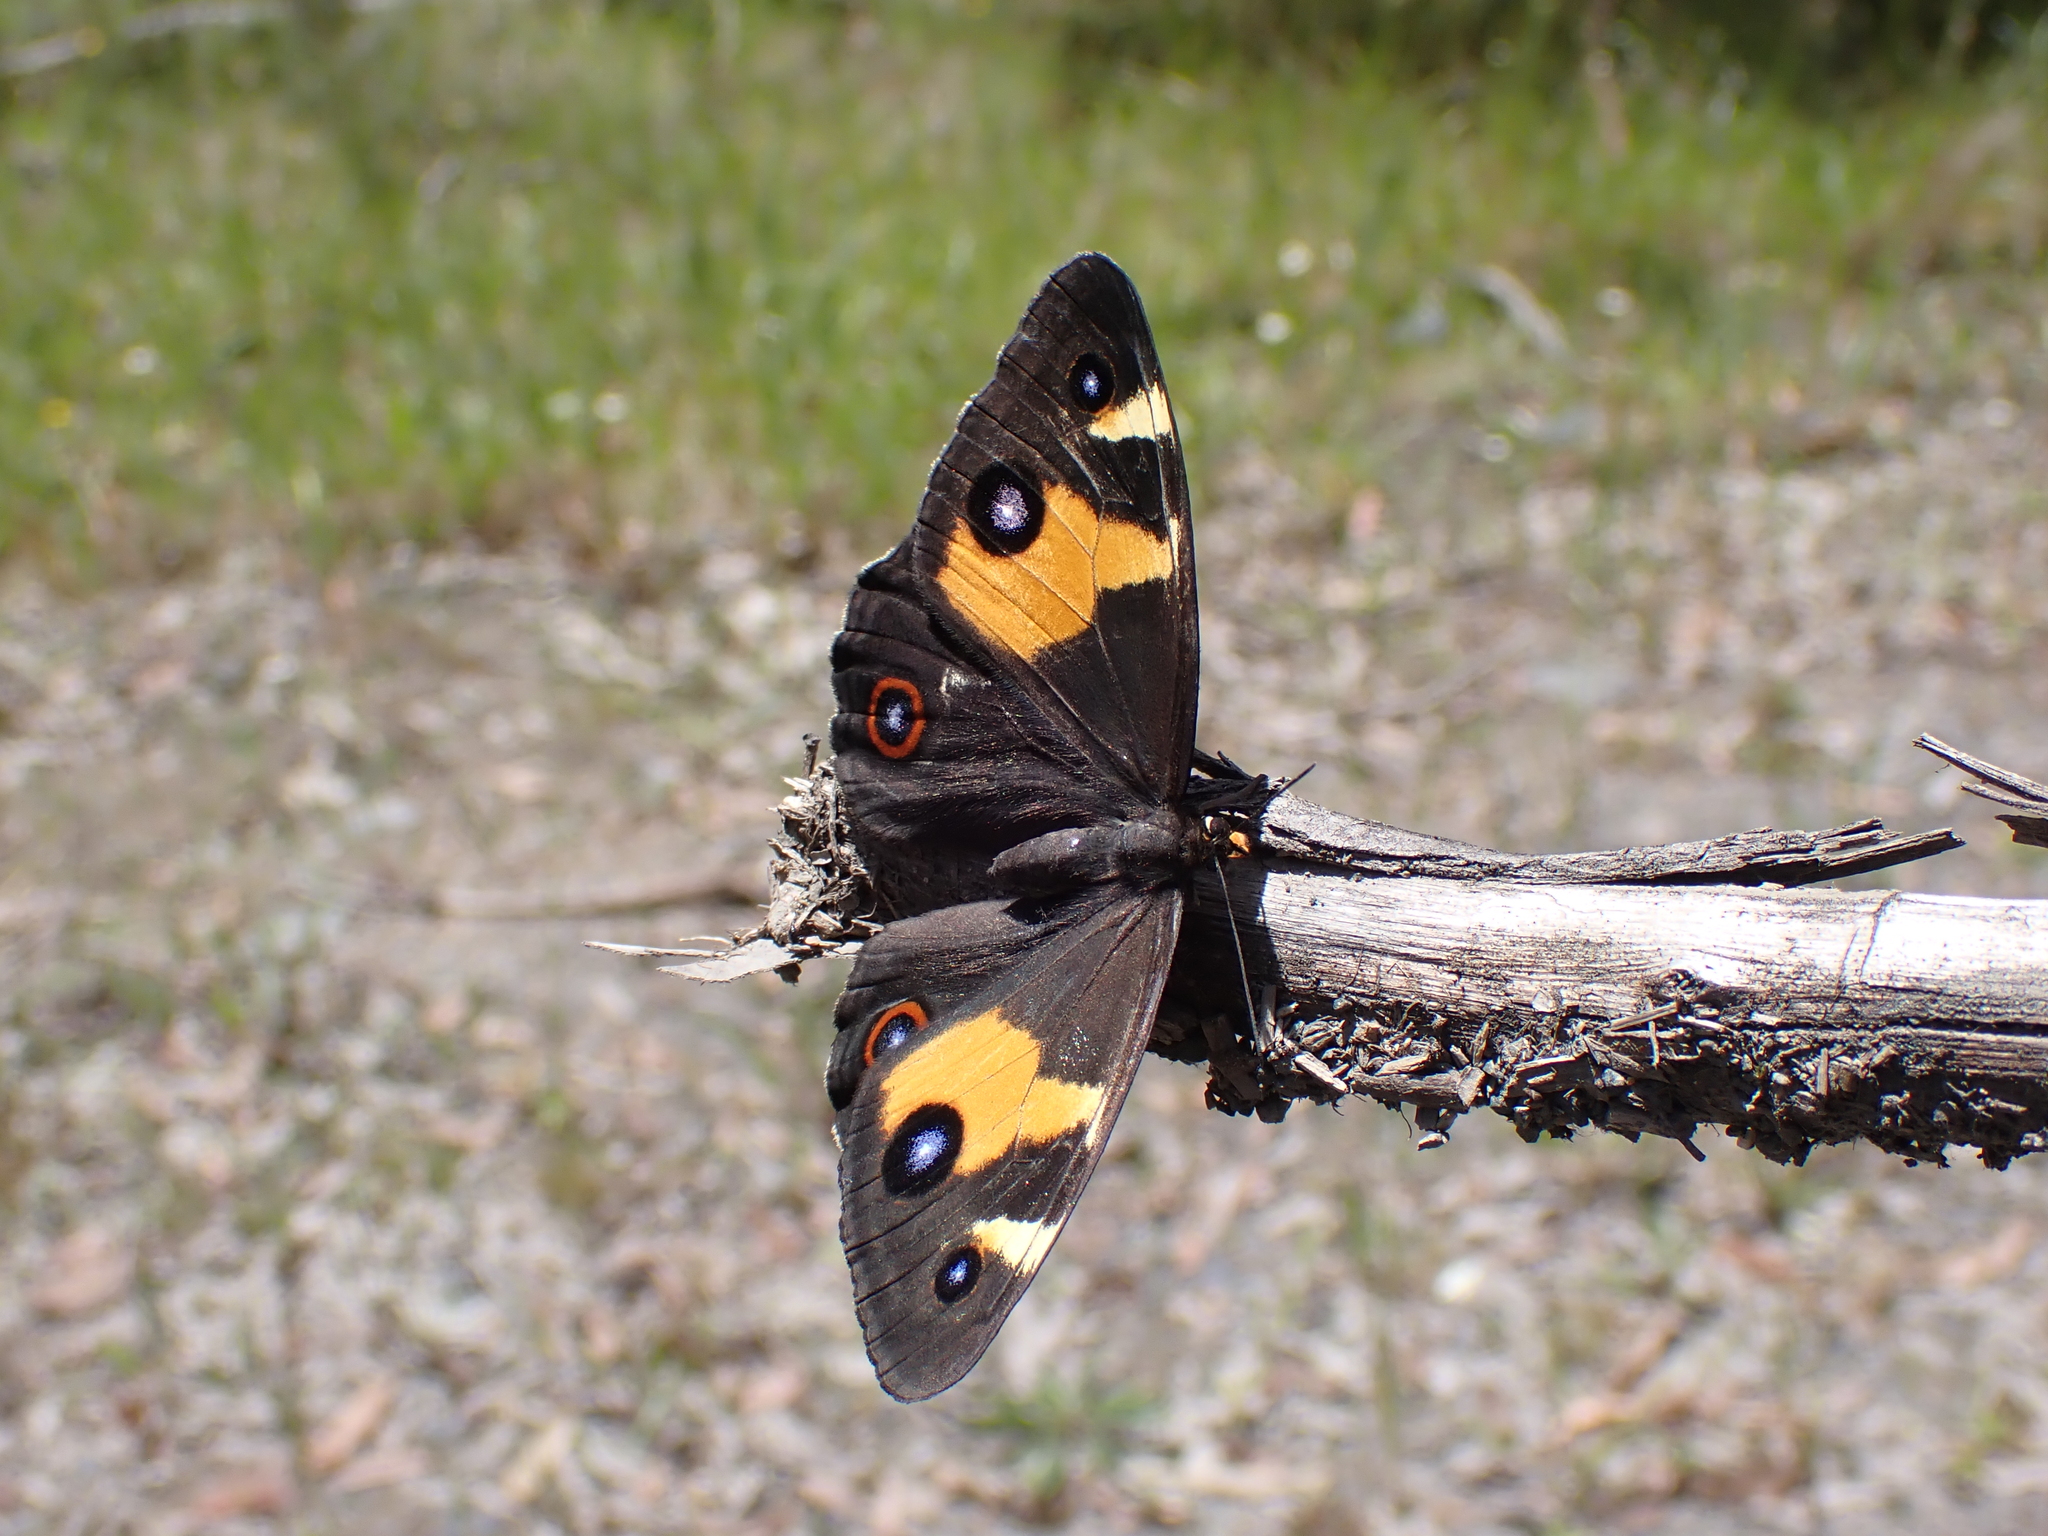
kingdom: Animalia
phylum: Arthropoda
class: Insecta
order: Lepidoptera
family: Nymphalidae
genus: Tisiphone
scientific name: Tisiphone abeona
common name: Swordgrass brown
